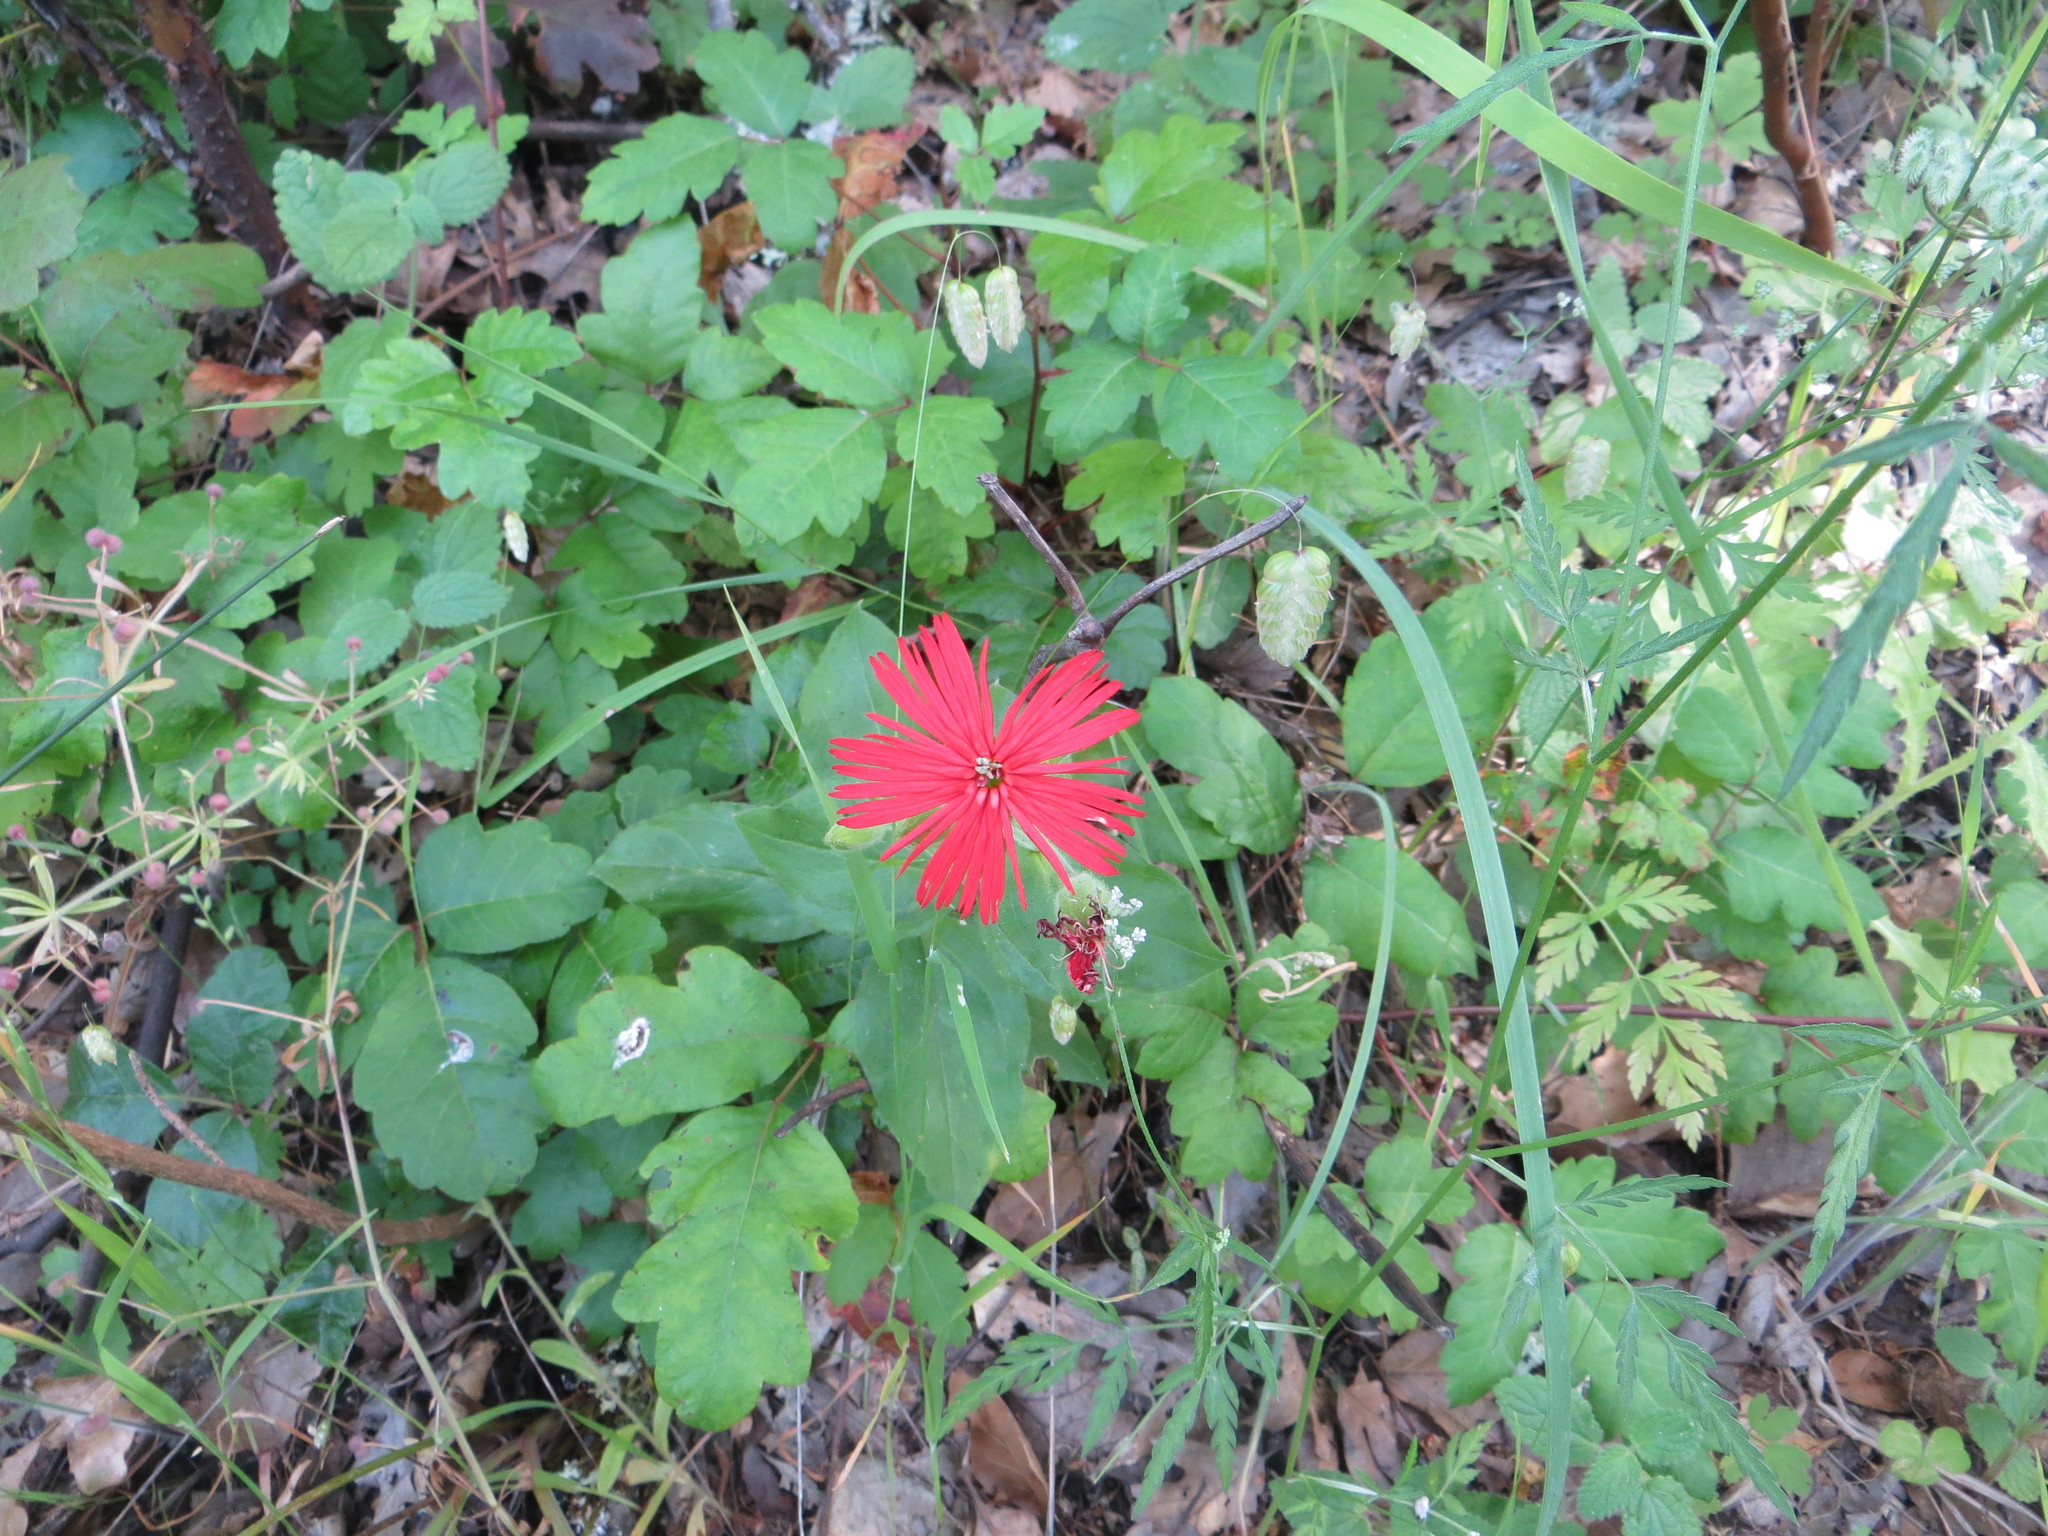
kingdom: Plantae
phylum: Tracheophyta
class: Magnoliopsida
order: Caryophyllales
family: Caryophyllaceae
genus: Silene
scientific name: Silene laciniata
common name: Indian-pink
